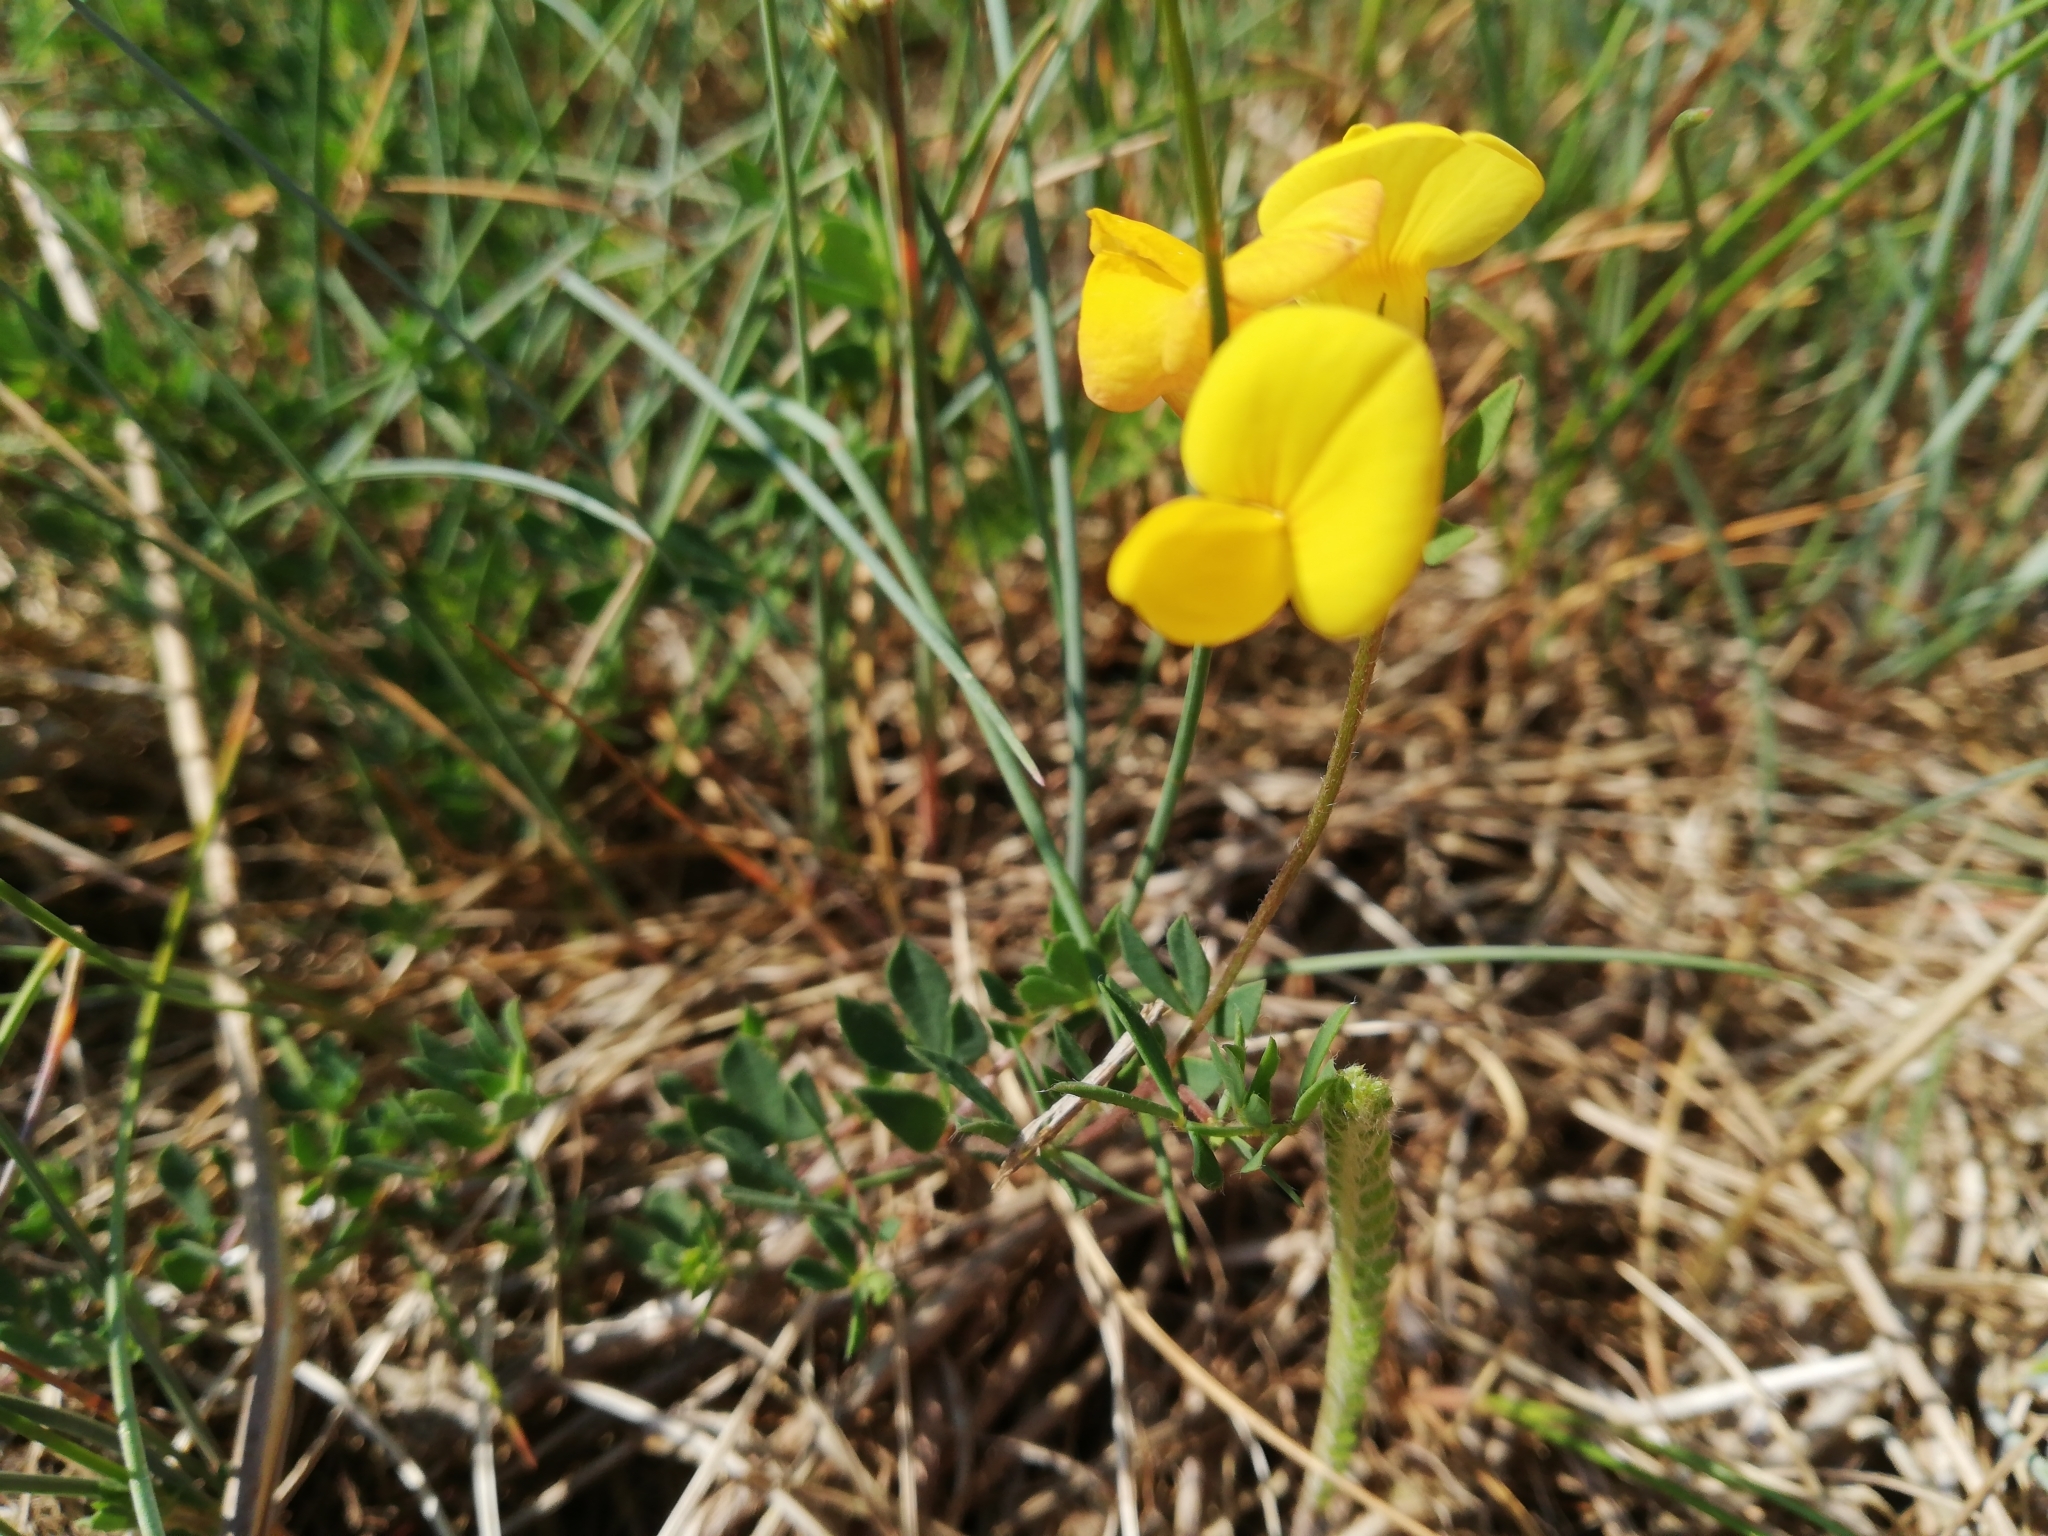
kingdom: Plantae
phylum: Tracheophyta
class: Magnoliopsida
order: Fabales
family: Fabaceae
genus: Lotus
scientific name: Lotus corniculatus
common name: Common bird's-foot-trefoil
